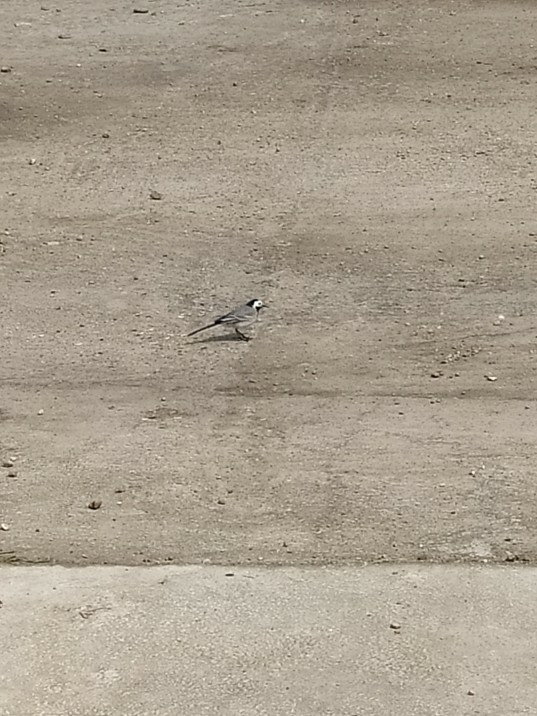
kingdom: Animalia
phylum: Chordata
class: Aves
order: Passeriformes
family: Motacillidae
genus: Motacilla
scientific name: Motacilla alba
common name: White wagtail
